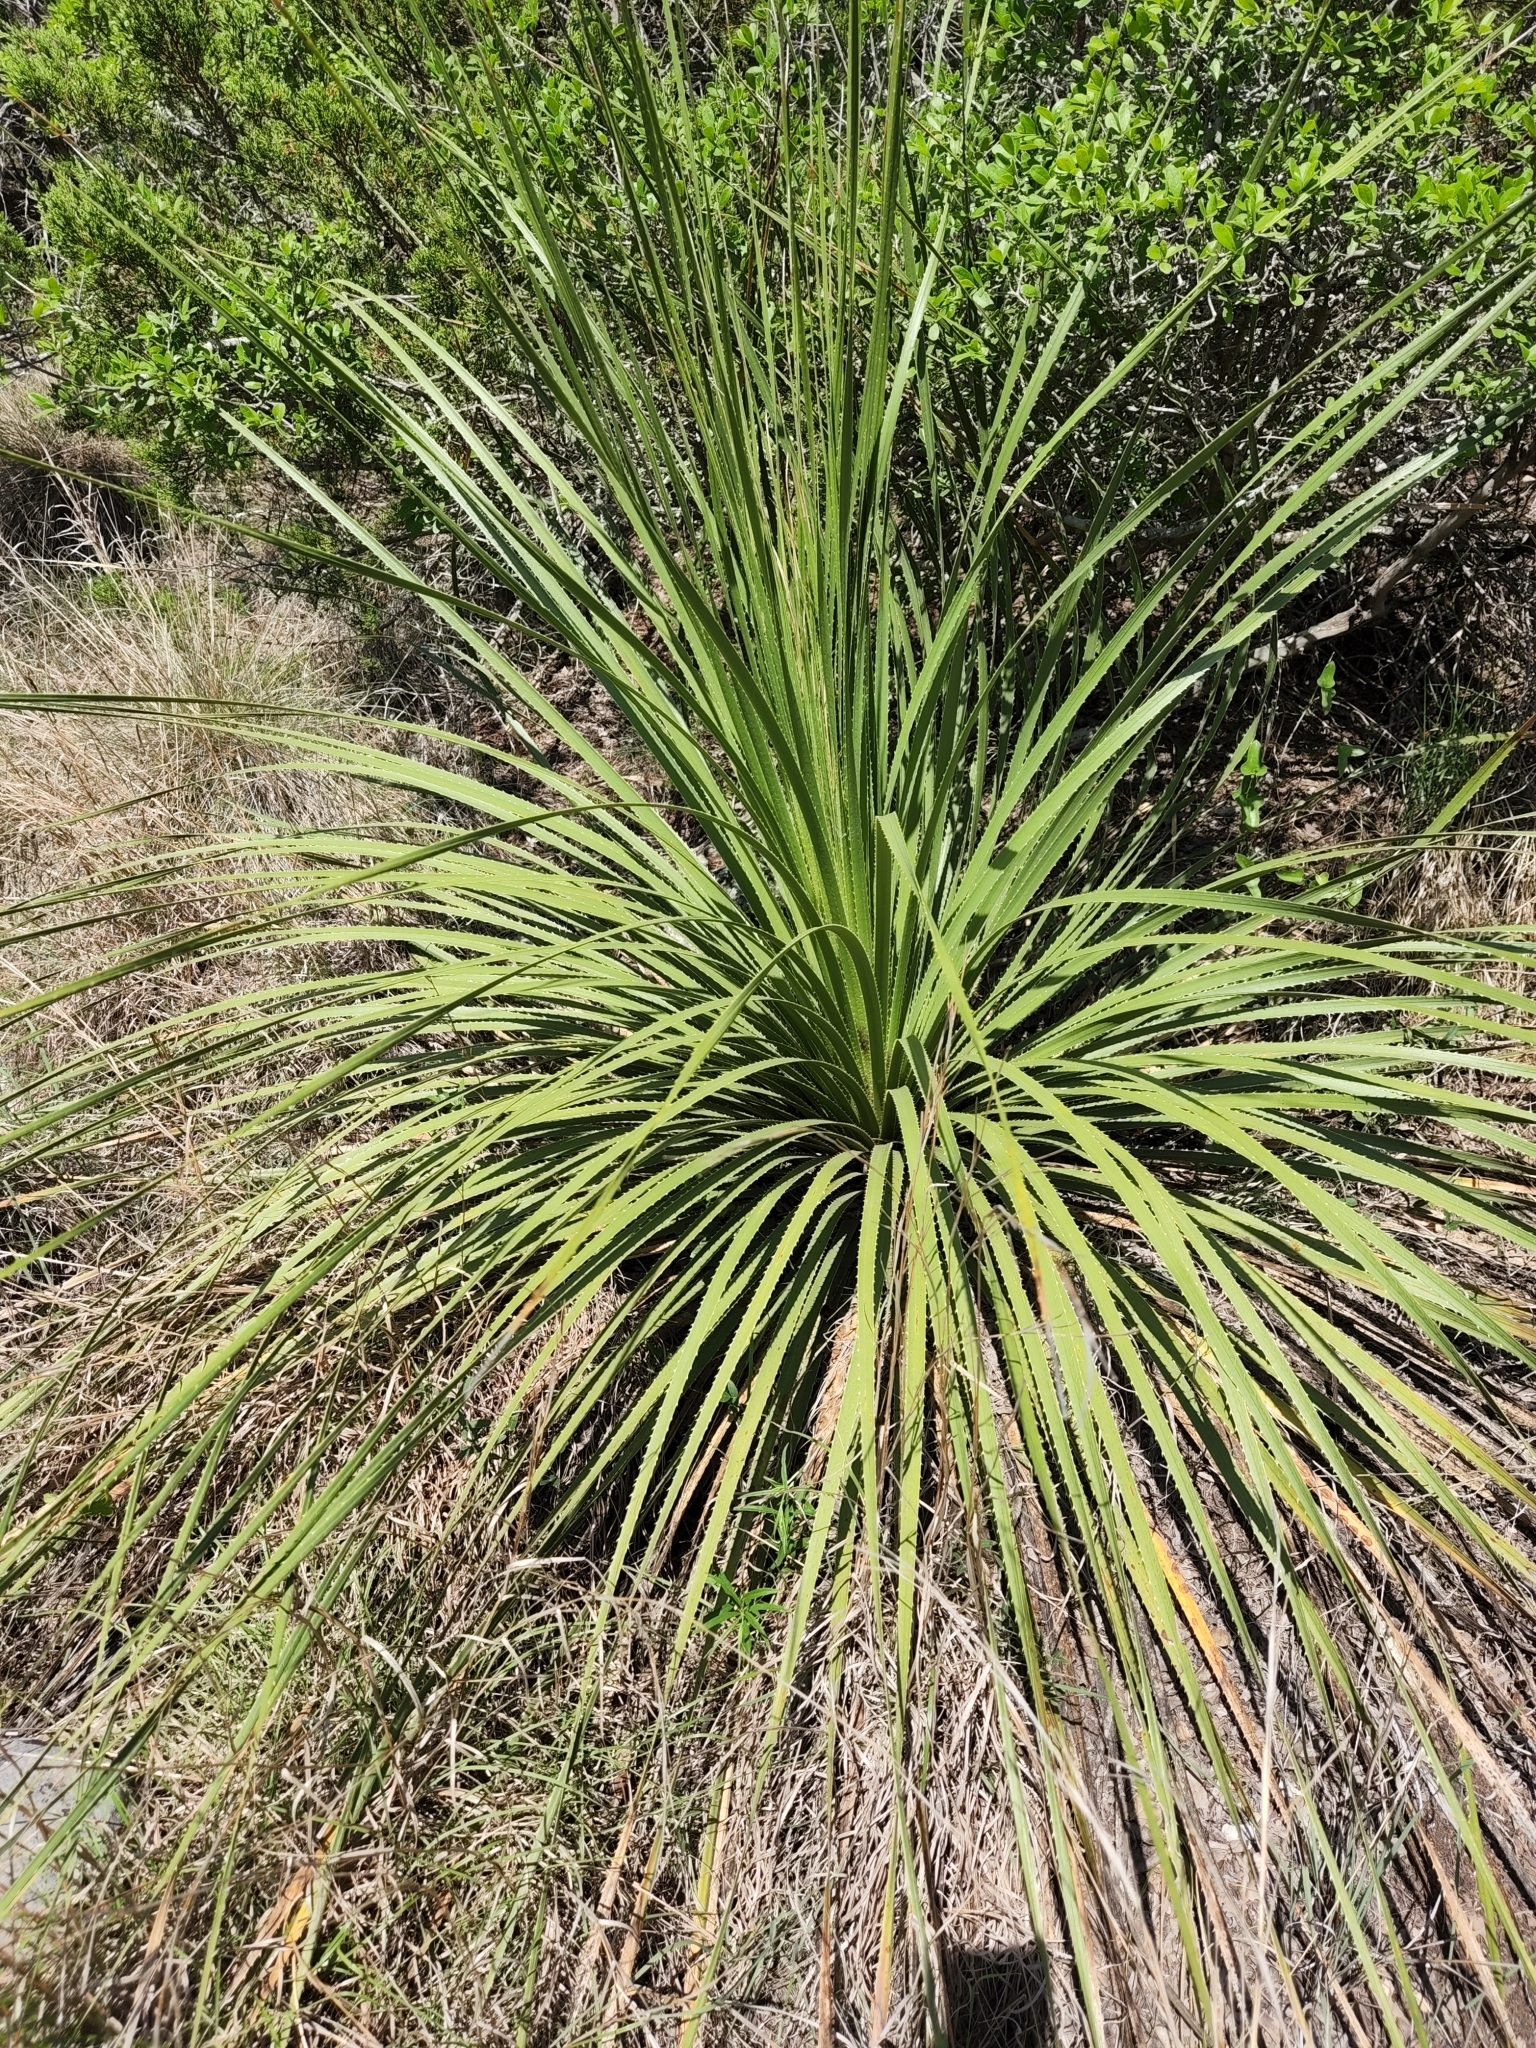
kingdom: Plantae
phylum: Tracheophyta
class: Liliopsida
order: Asparagales
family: Asparagaceae
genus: Dasylirion
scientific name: Dasylirion texanum
